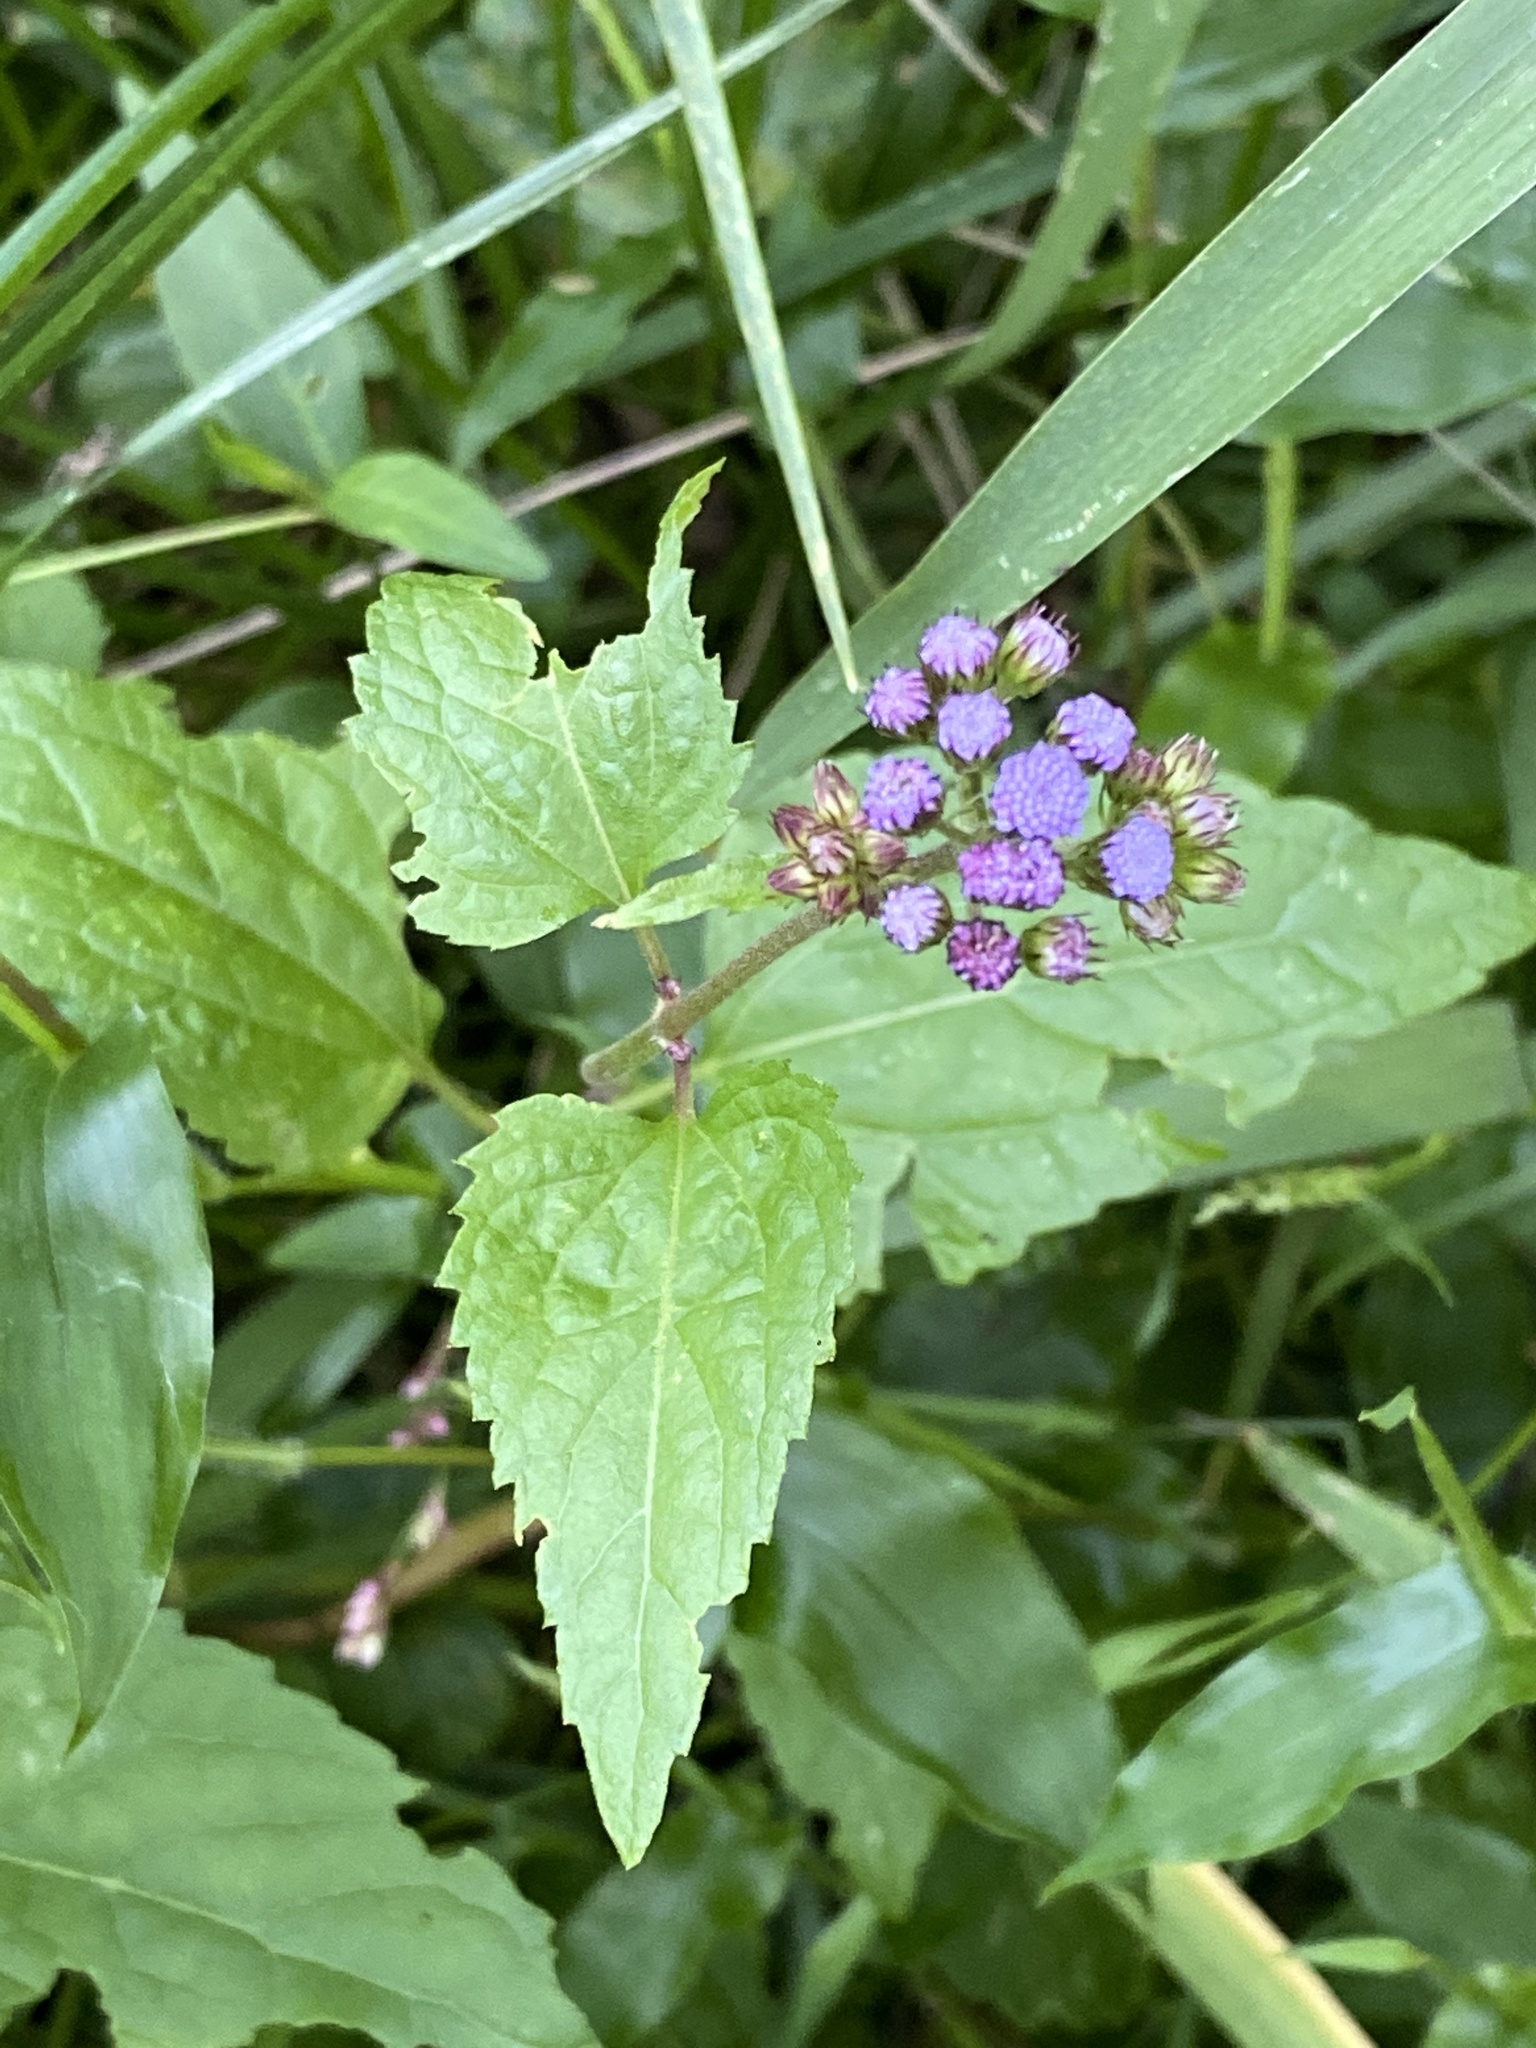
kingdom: Plantae
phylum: Tracheophyta
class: Magnoliopsida
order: Asterales
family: Asteraceae
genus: Conoclinium
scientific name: Conoclinium coelestinum
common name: Blue mistflower
